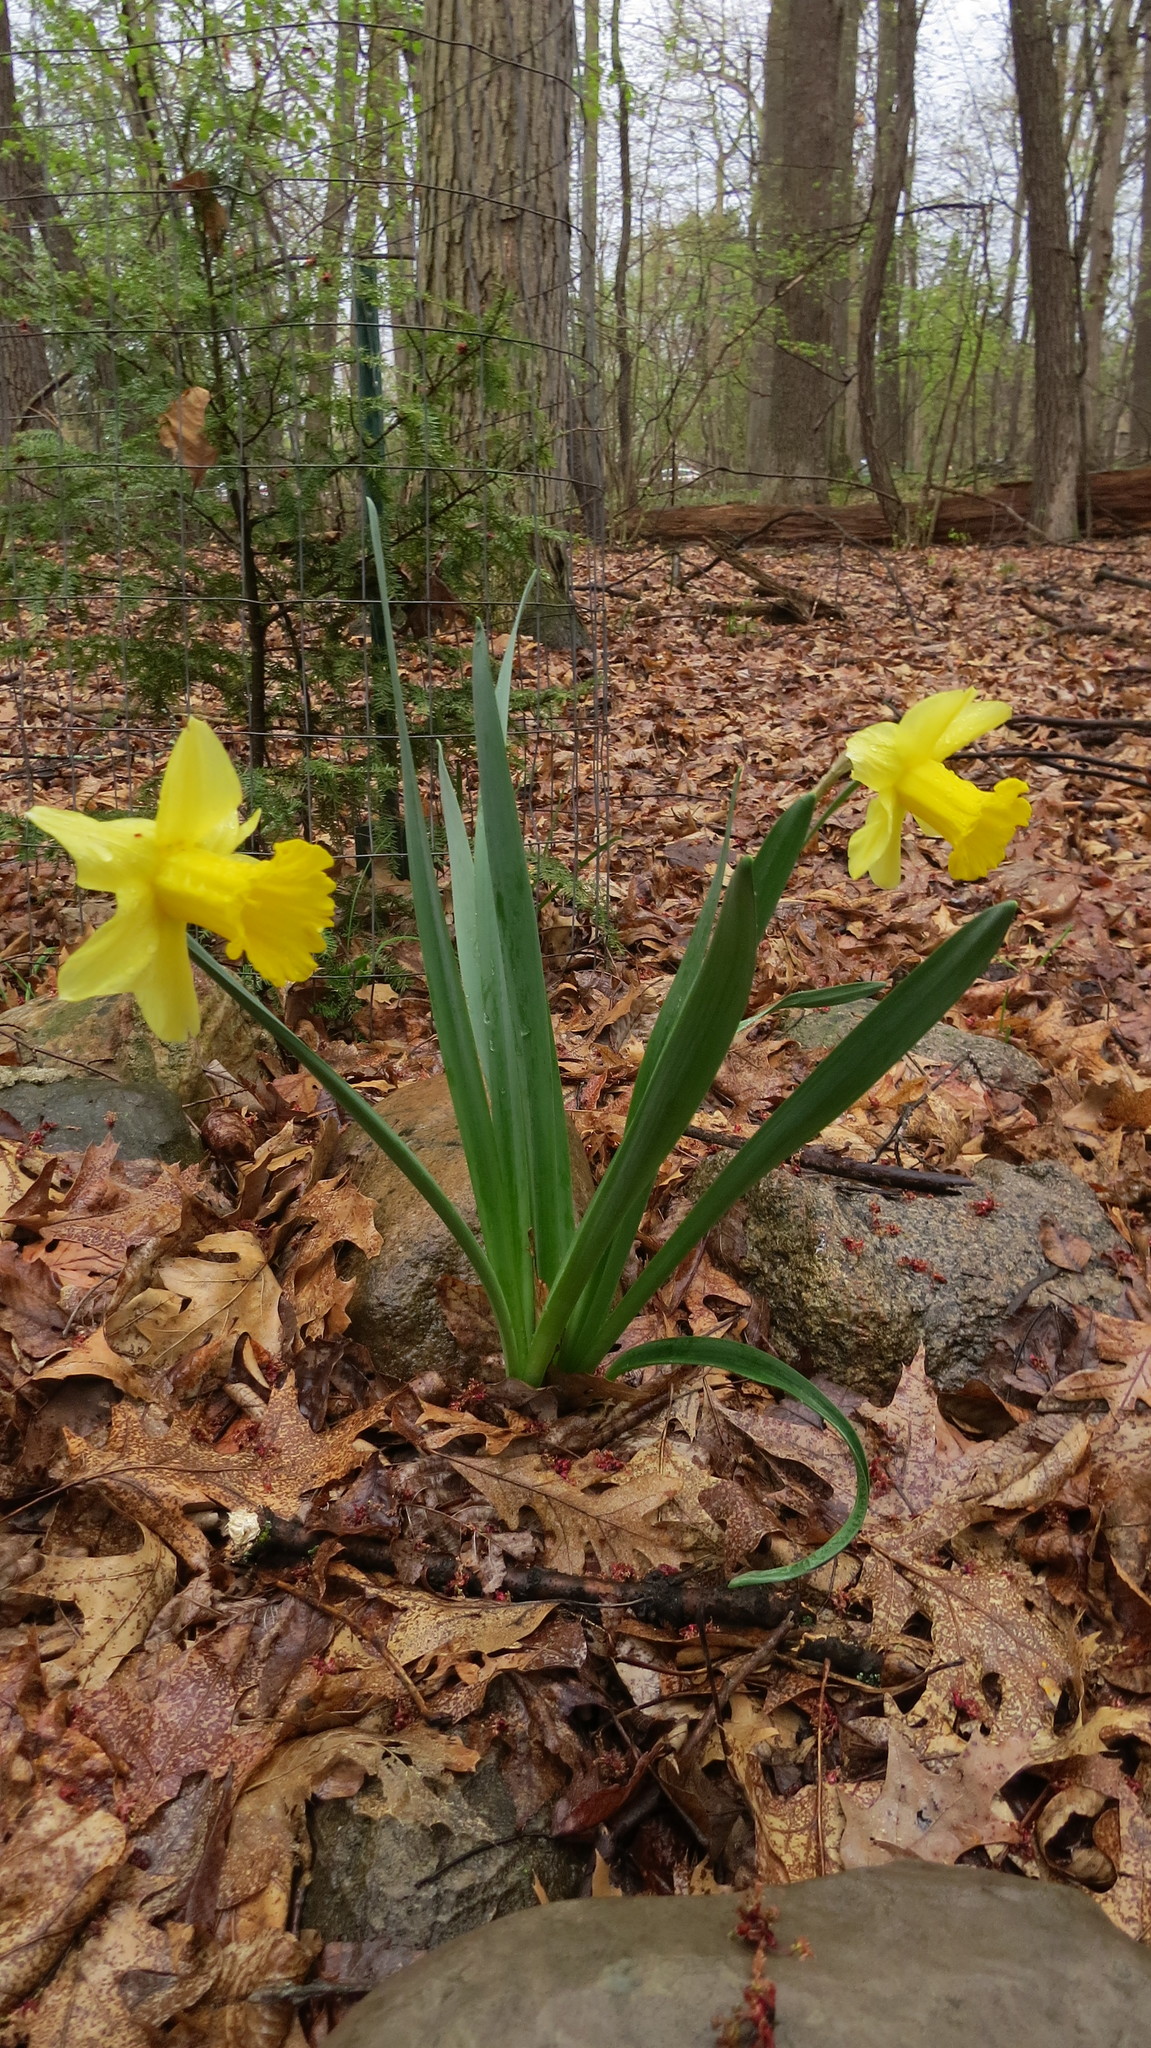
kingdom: Plantae
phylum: Tracheophyta
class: Liliopsida
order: Asparagales
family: Amaryllidaceae
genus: Narcissus
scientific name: Narcissus pseudonarcissus
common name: Daffodil
